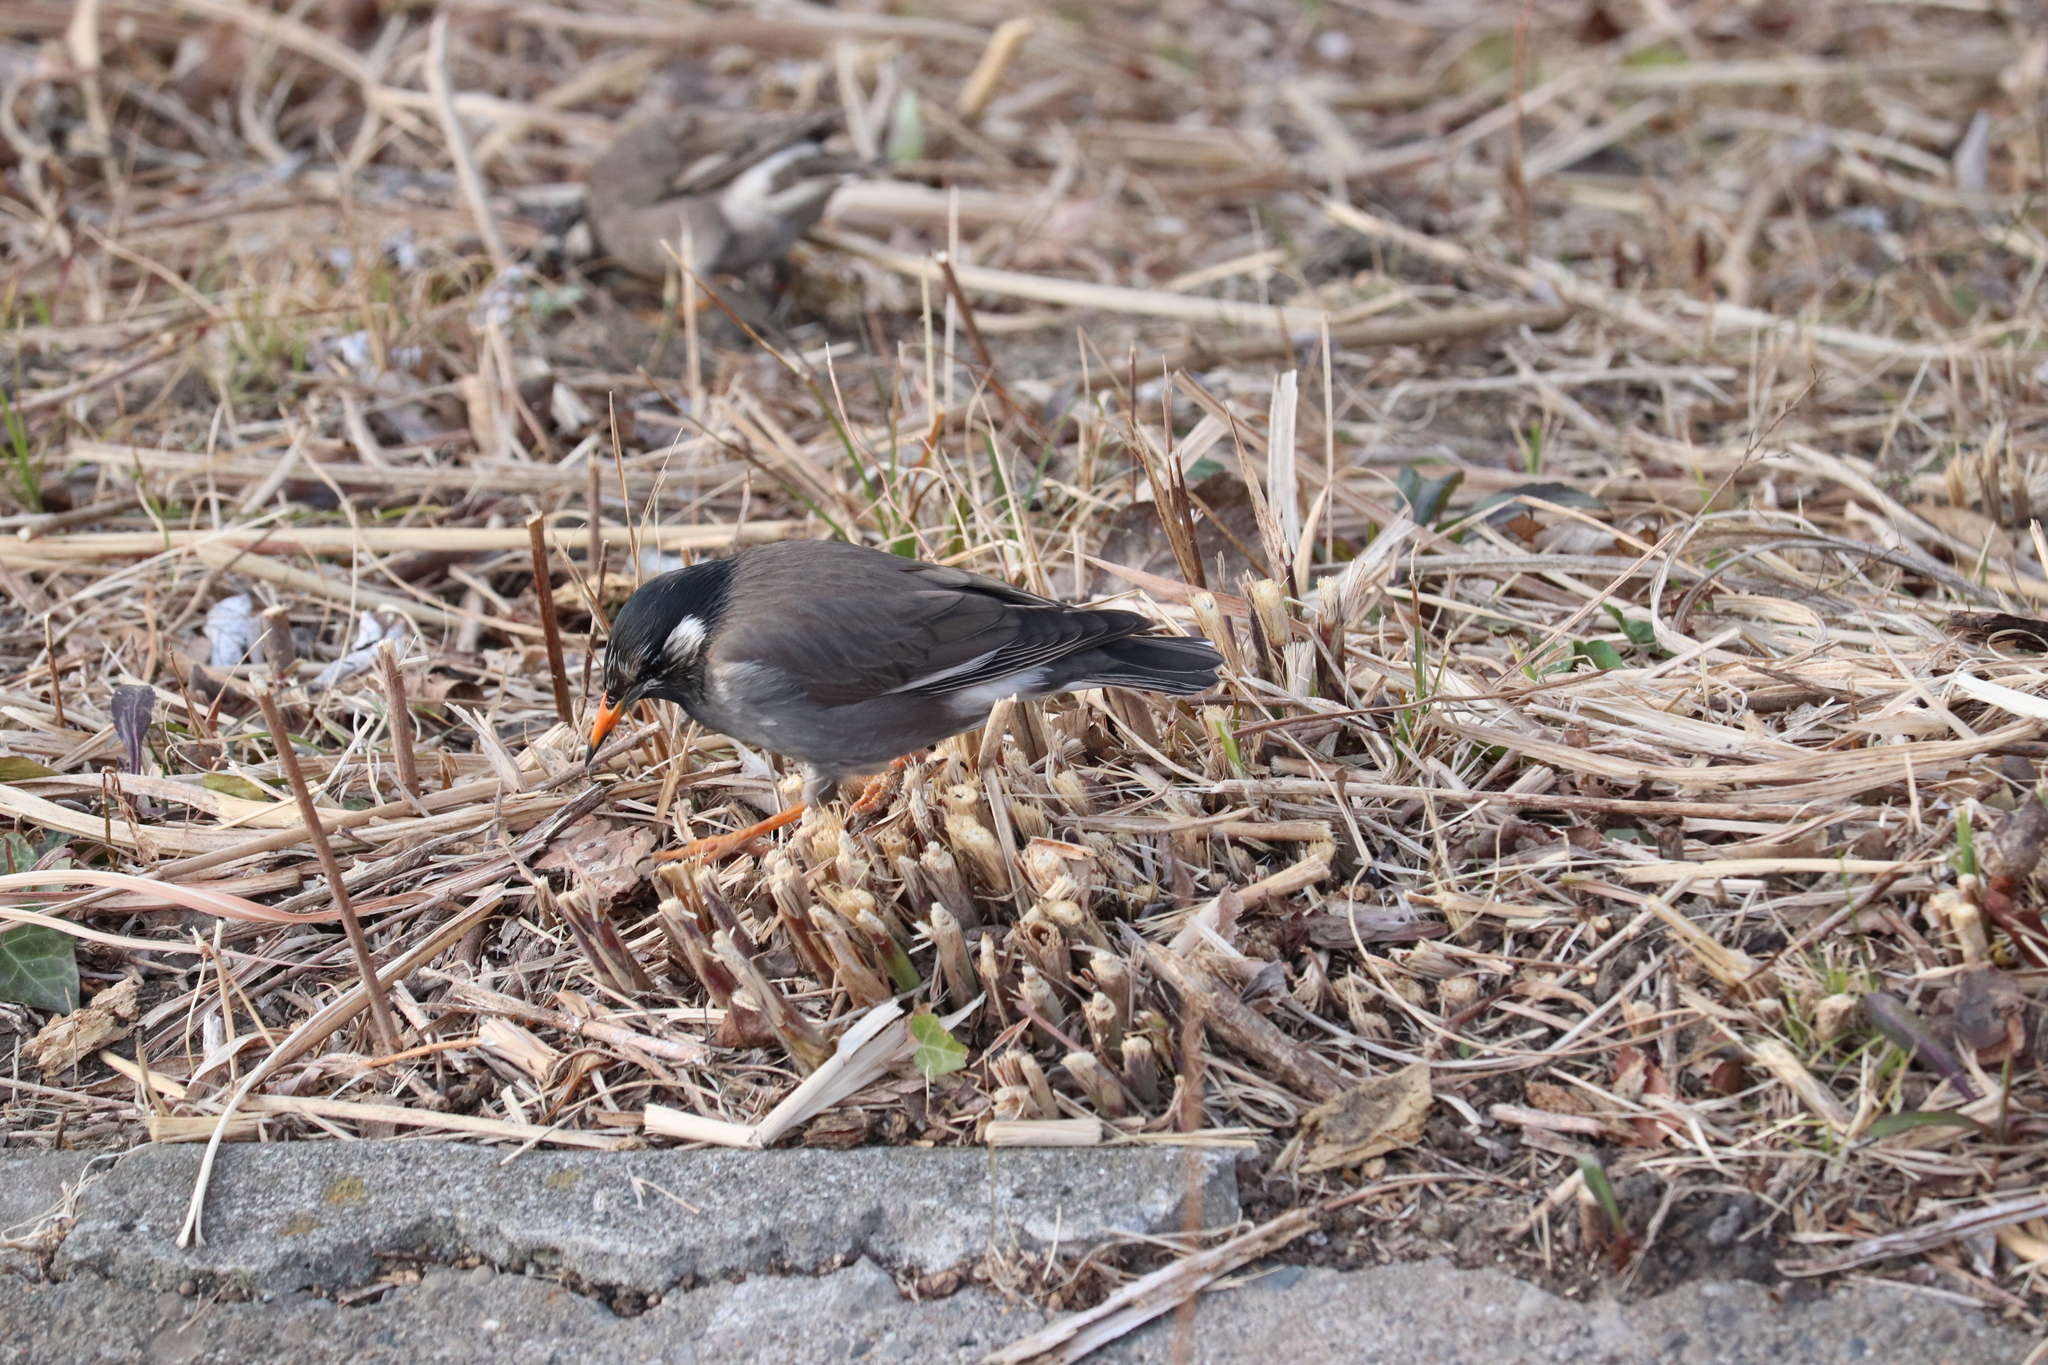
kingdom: Animalia
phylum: Chordata
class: Aves
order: Passeriformes
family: Sturnidae
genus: Spodiopsar
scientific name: Spodiopsar cineraceus
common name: White-cheeked starling
